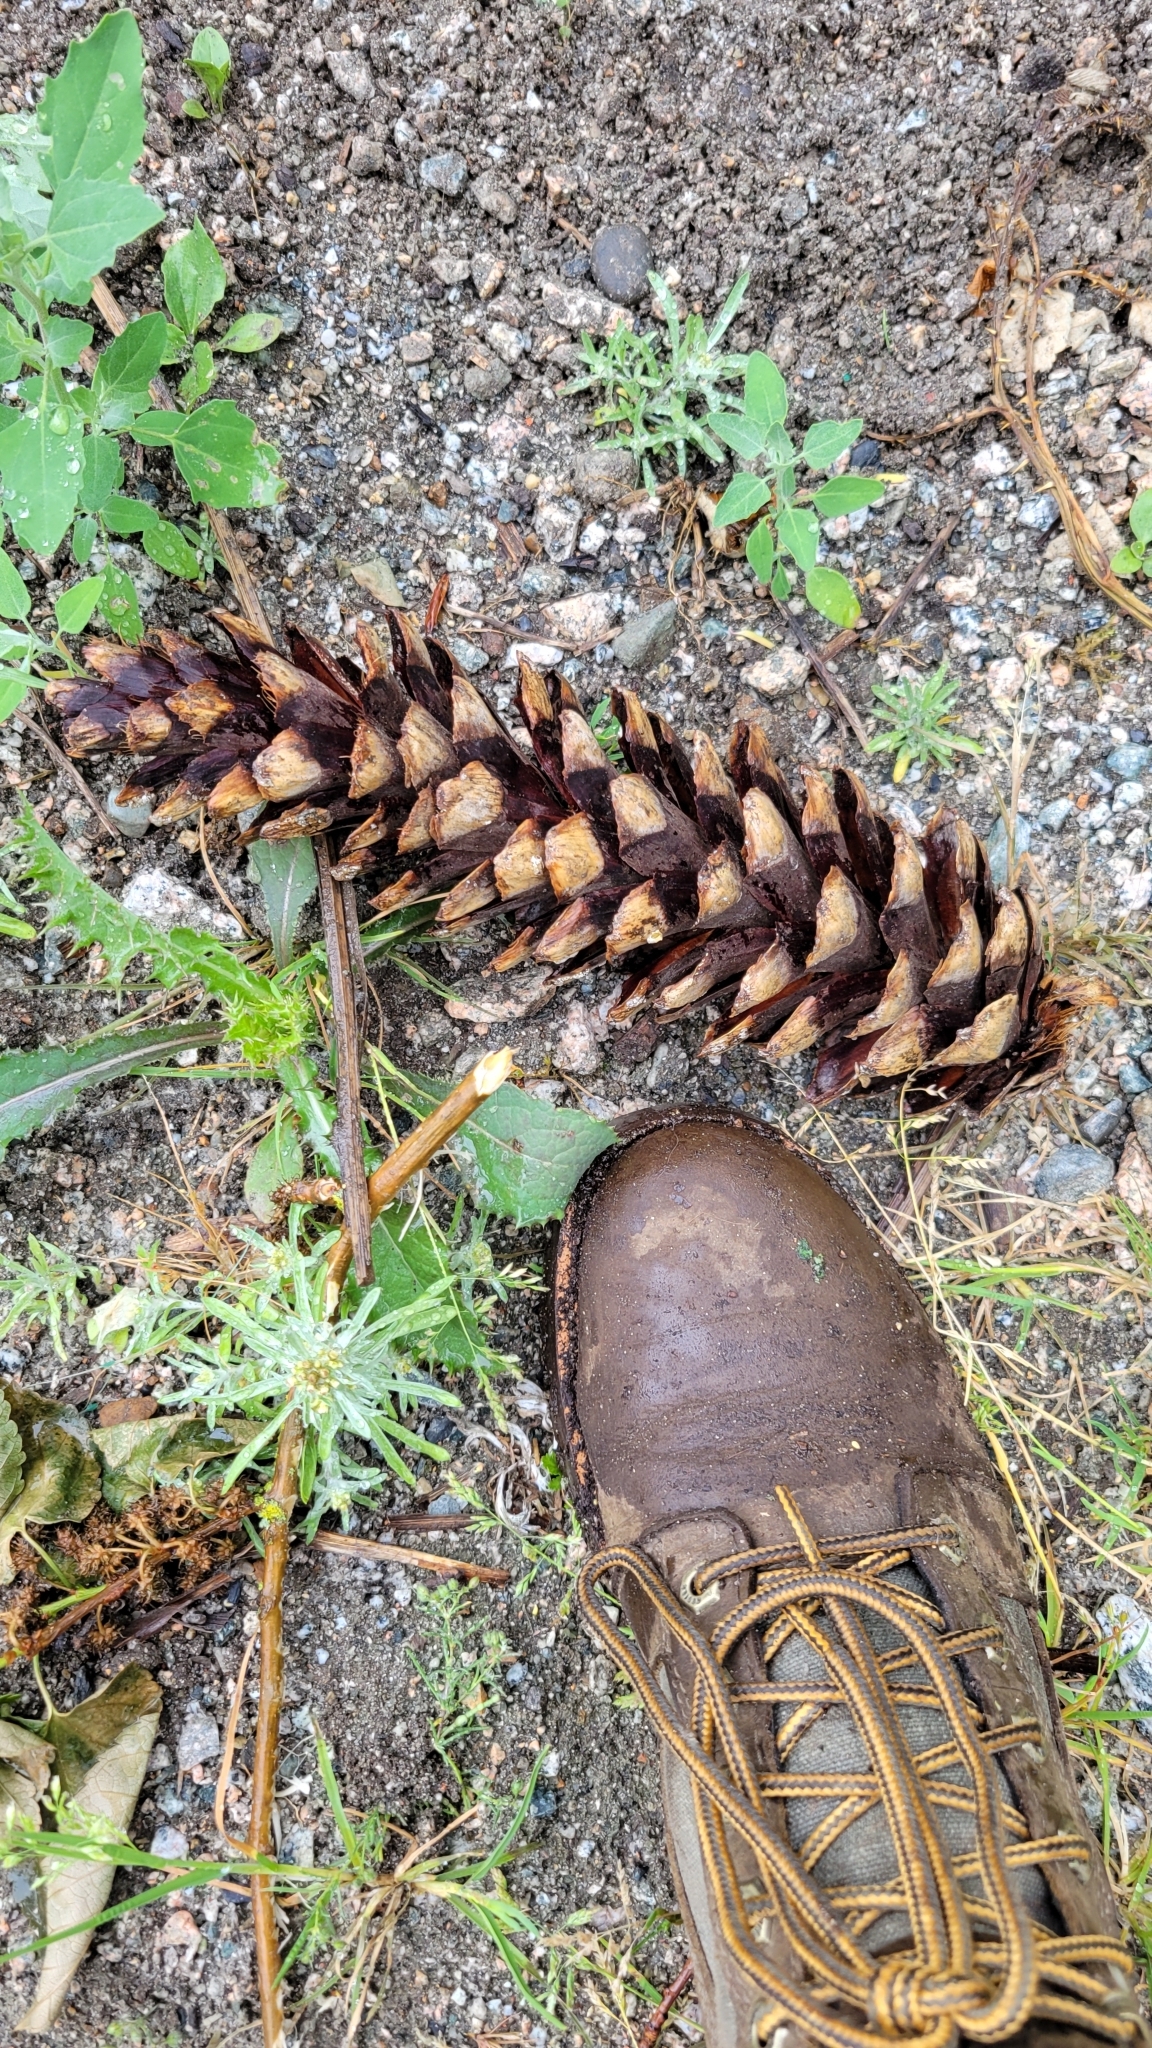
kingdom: Plantae
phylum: Tracheophyta
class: Pinopsida
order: Pinales
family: Pinaceae
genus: Pinus
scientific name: Pinus monticola
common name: Western white pine
